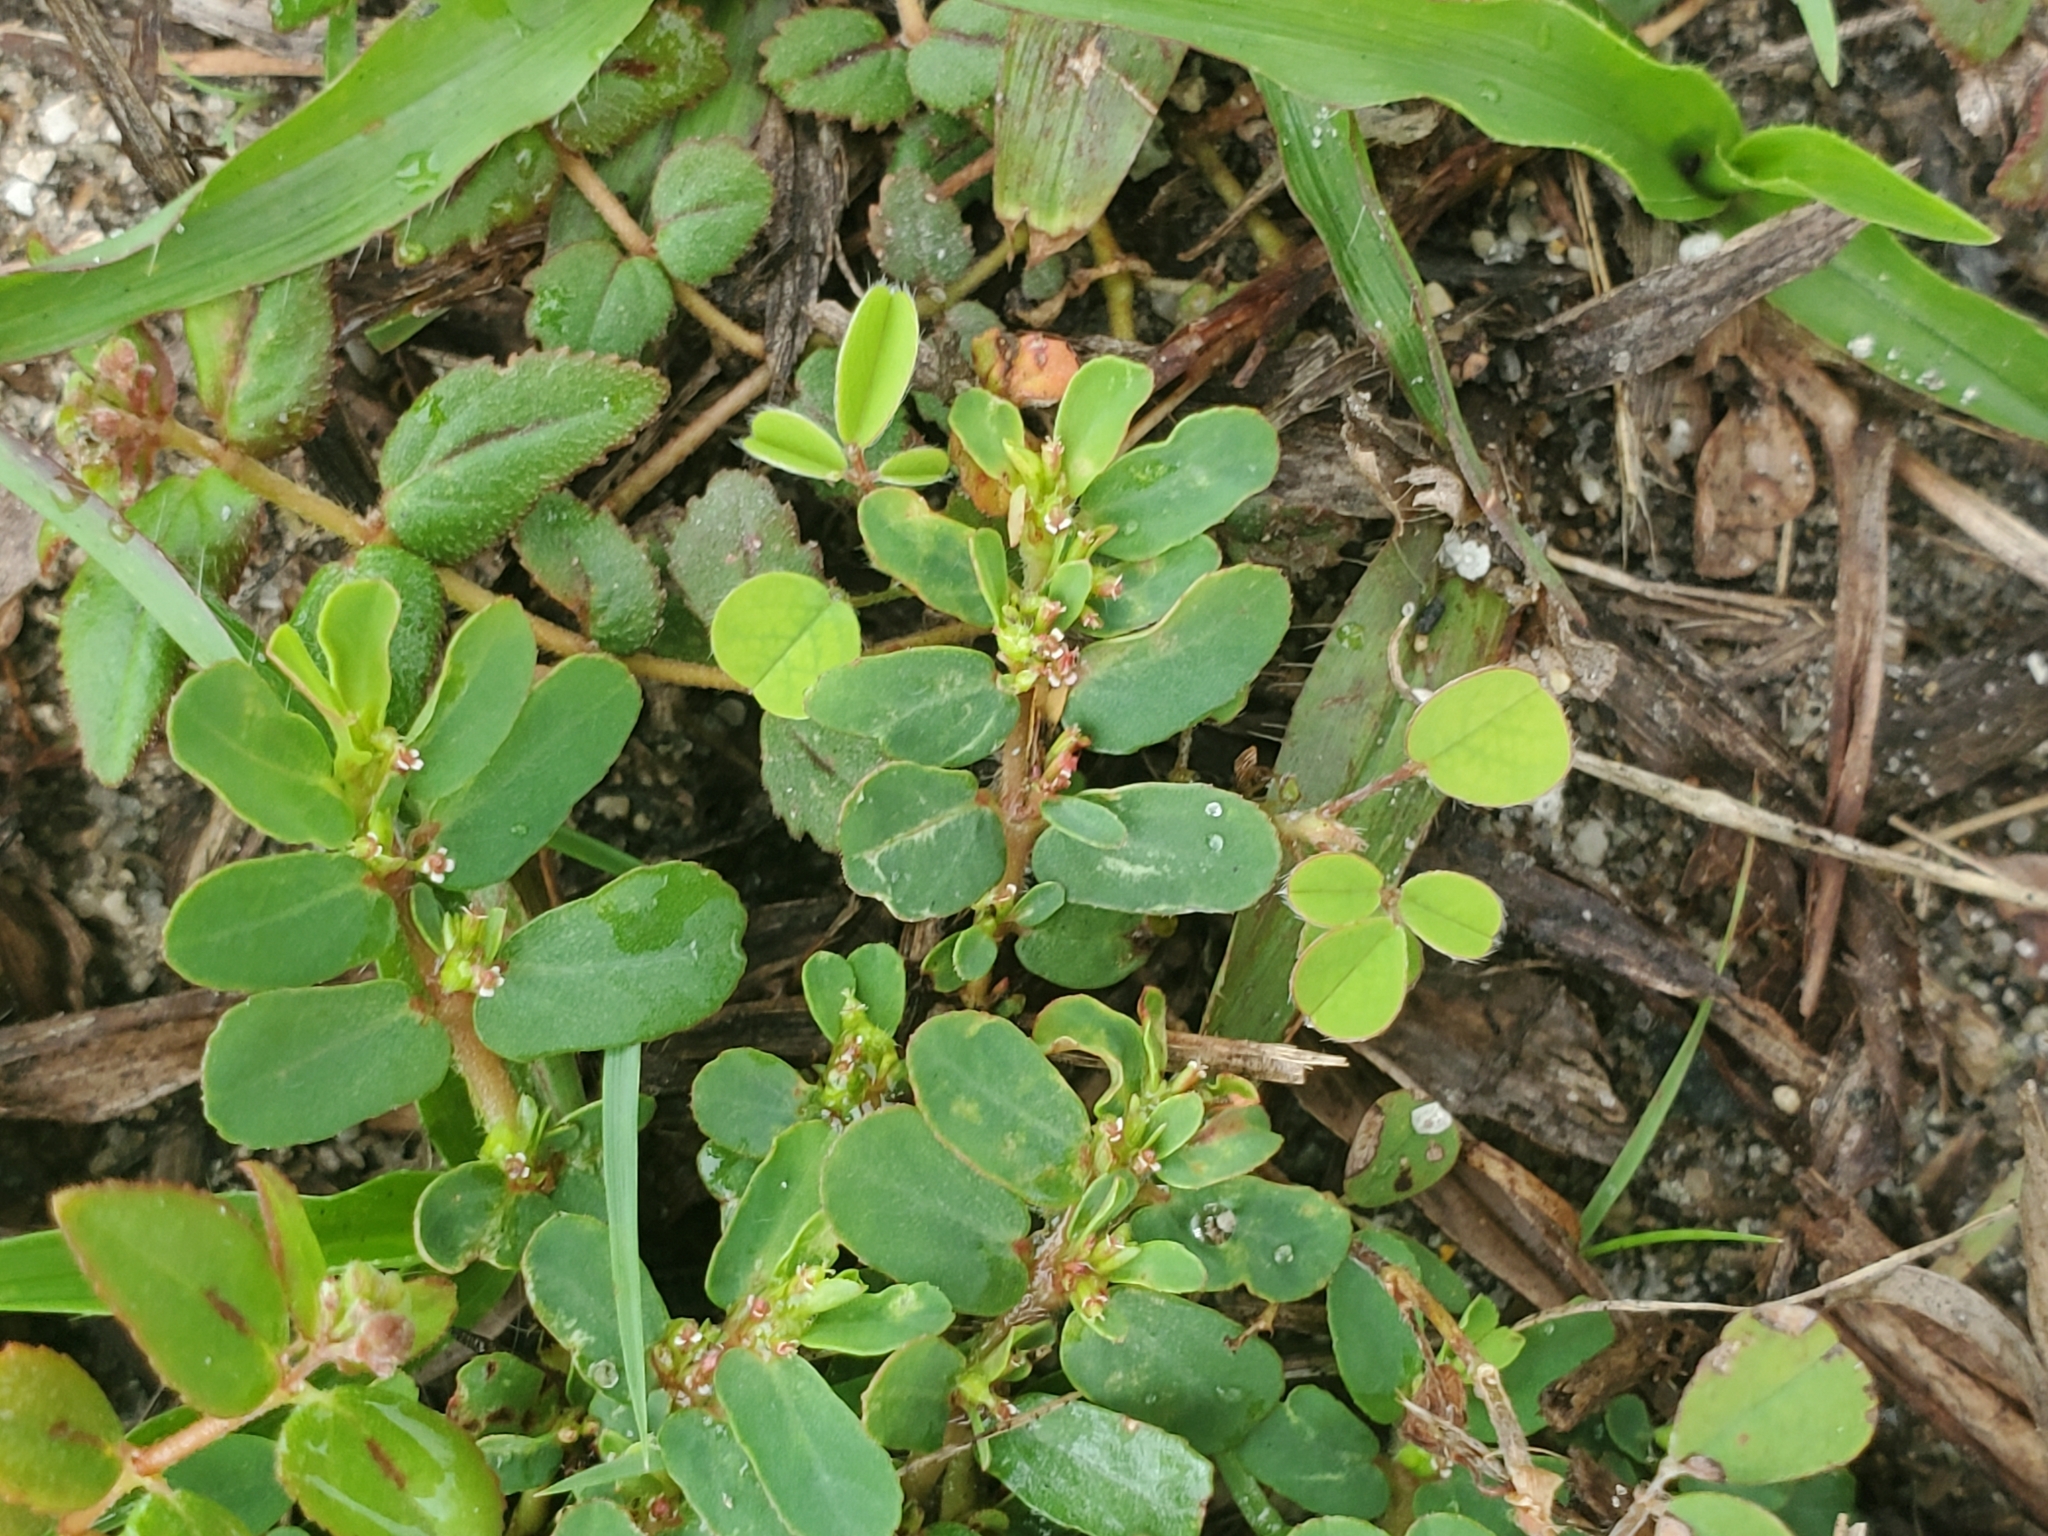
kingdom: Plantae
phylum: Tracheophyta
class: Magnoliopsida
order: Malpighiales
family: Euphorbiaceae
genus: Euphorbia
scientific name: Euphorbia mendezii
